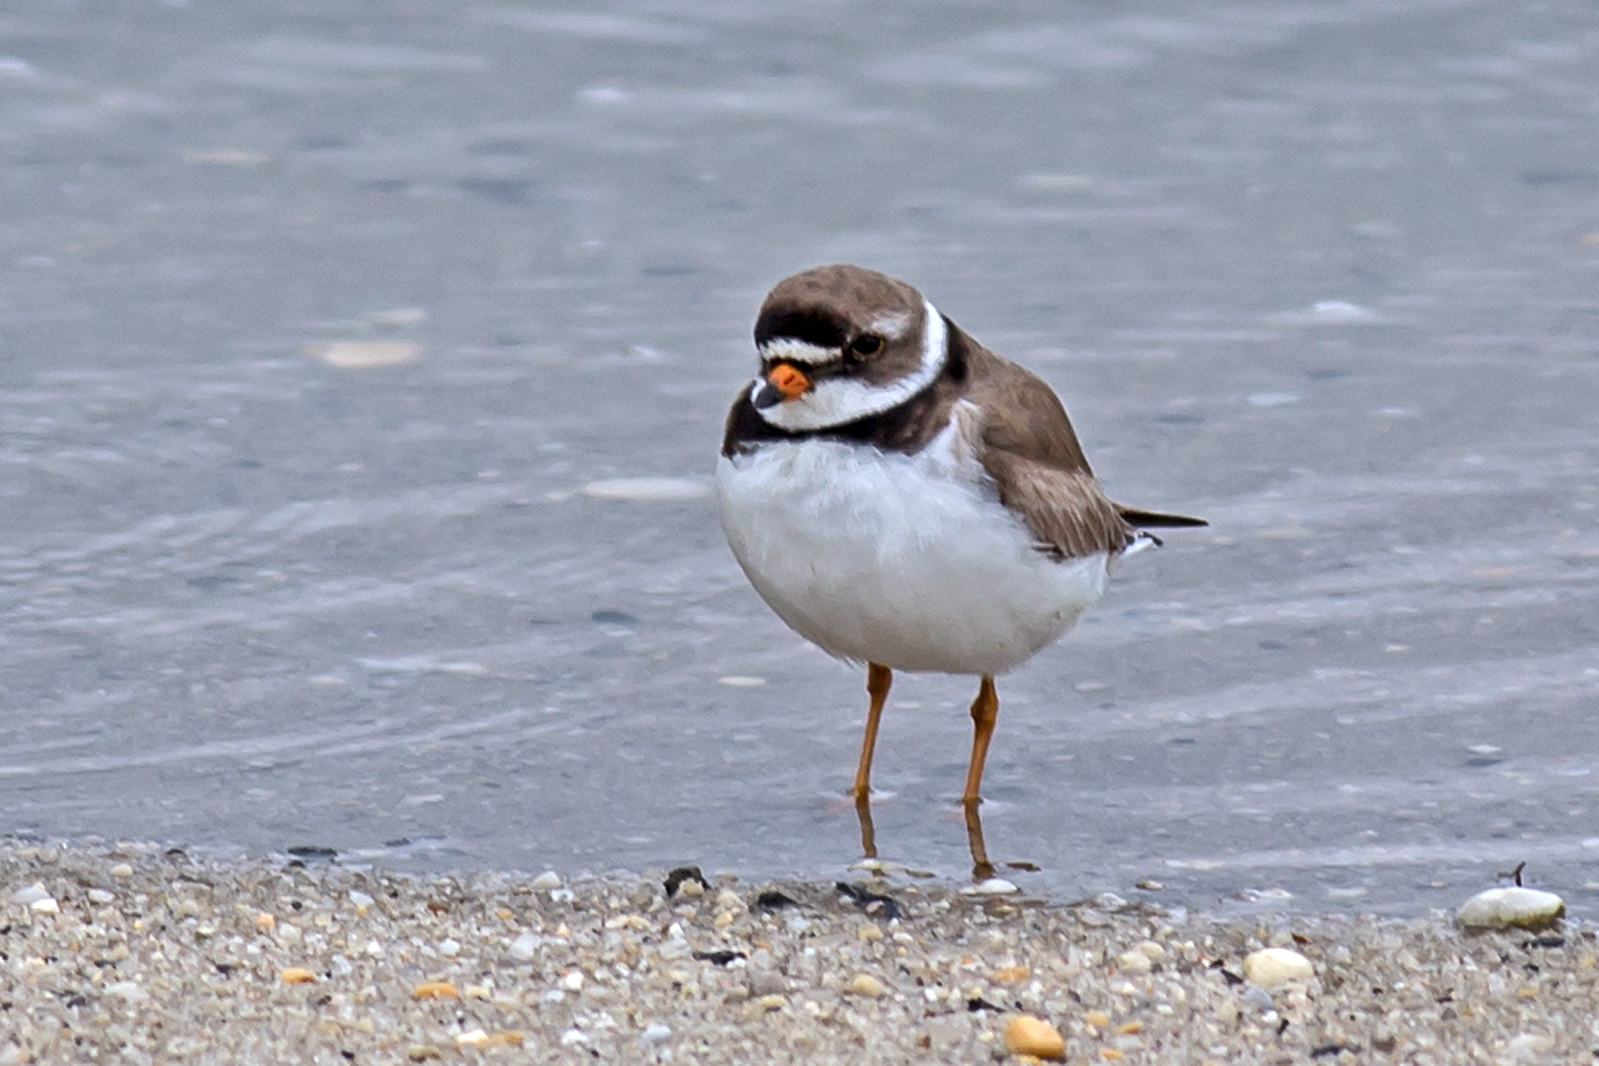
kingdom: Animalia
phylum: Chordata
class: Aves
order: Charadriiformes
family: Charadriidae
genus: Charadrius
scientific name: Charadrius semipalmatus
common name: Semipalmated plover
